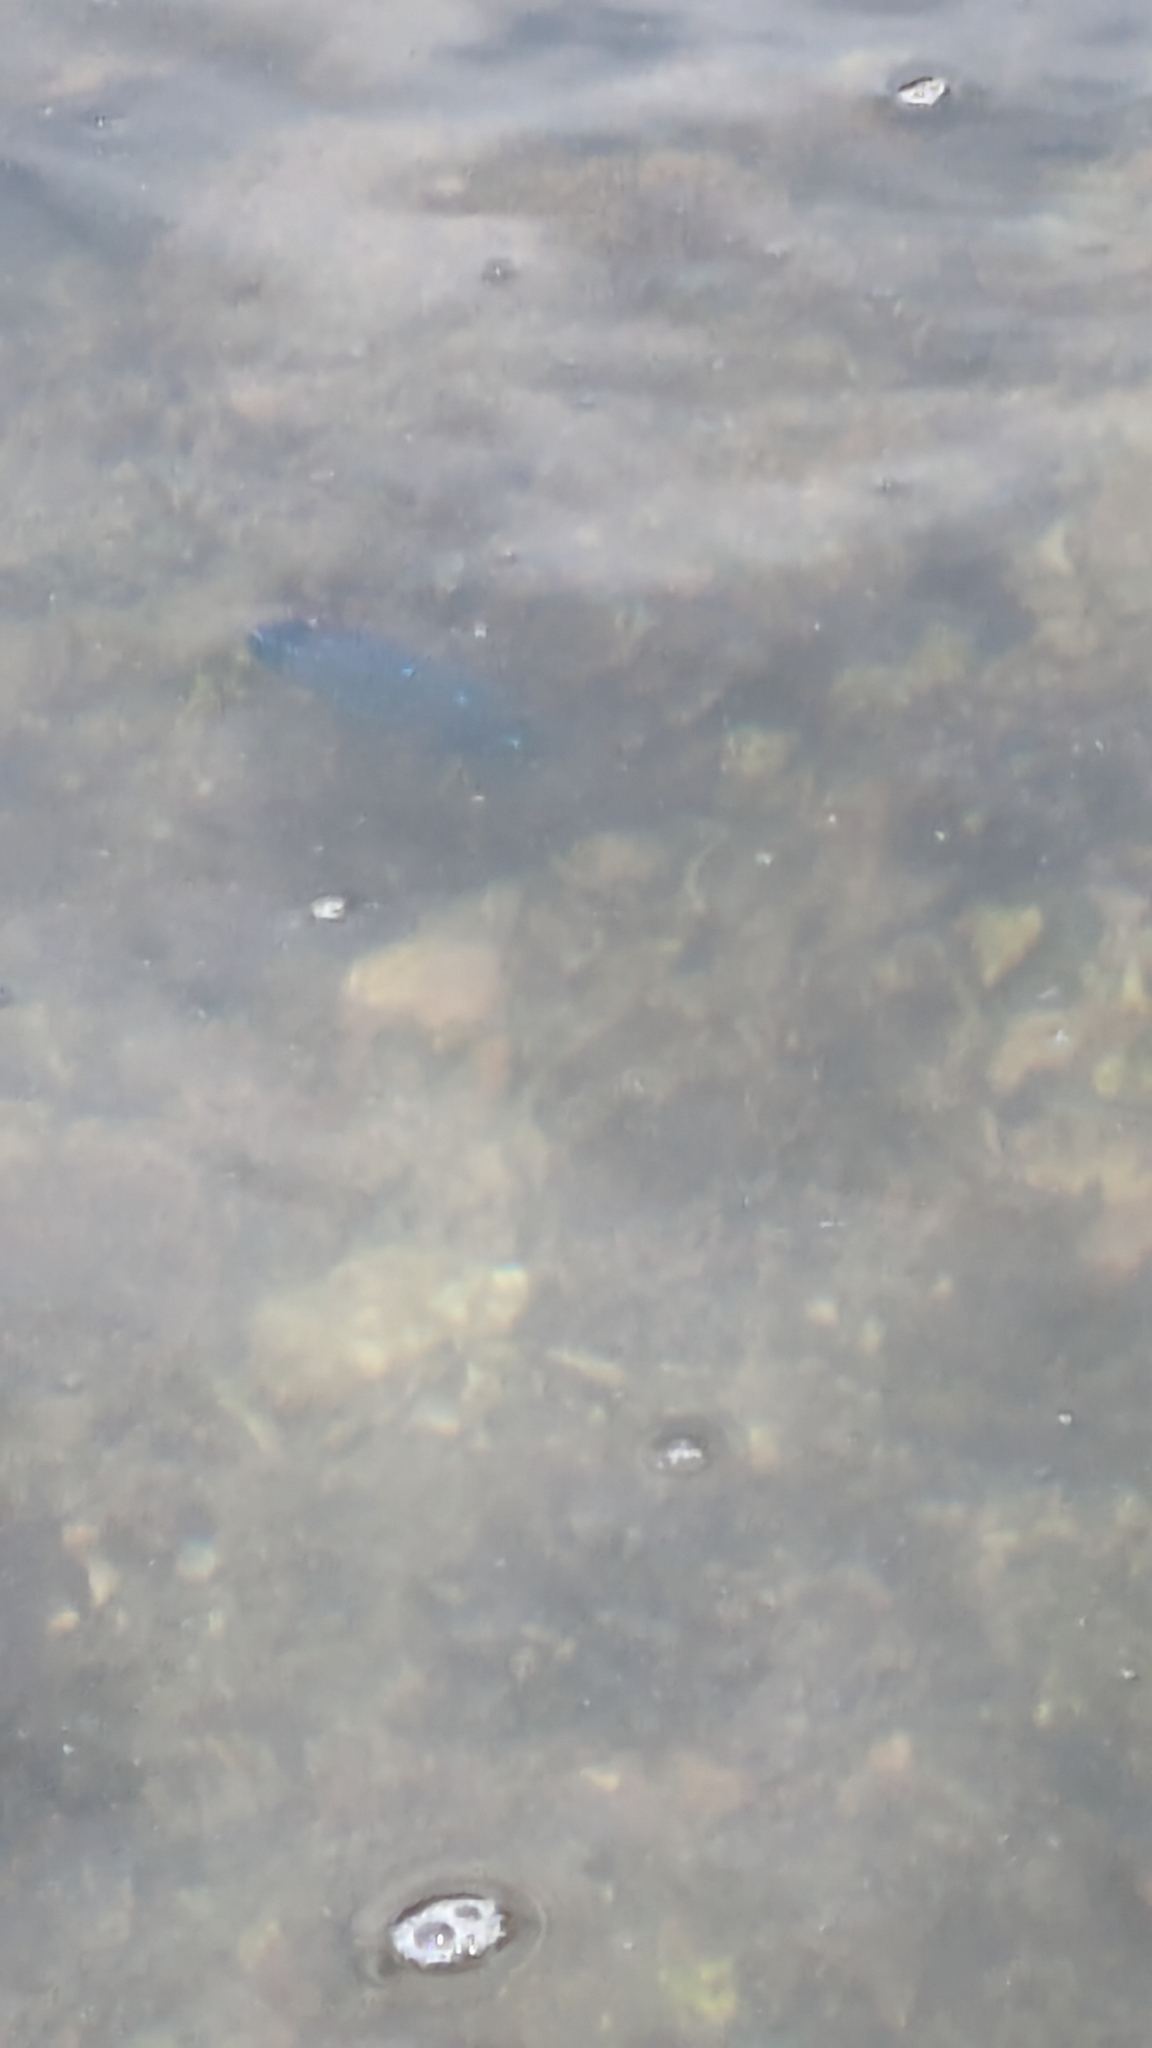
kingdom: Animalia
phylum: Chordata
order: Perciformes
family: Pomacentridae
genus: Microspathodon
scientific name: Microspathodon dorsalis
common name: Giant damselfish
